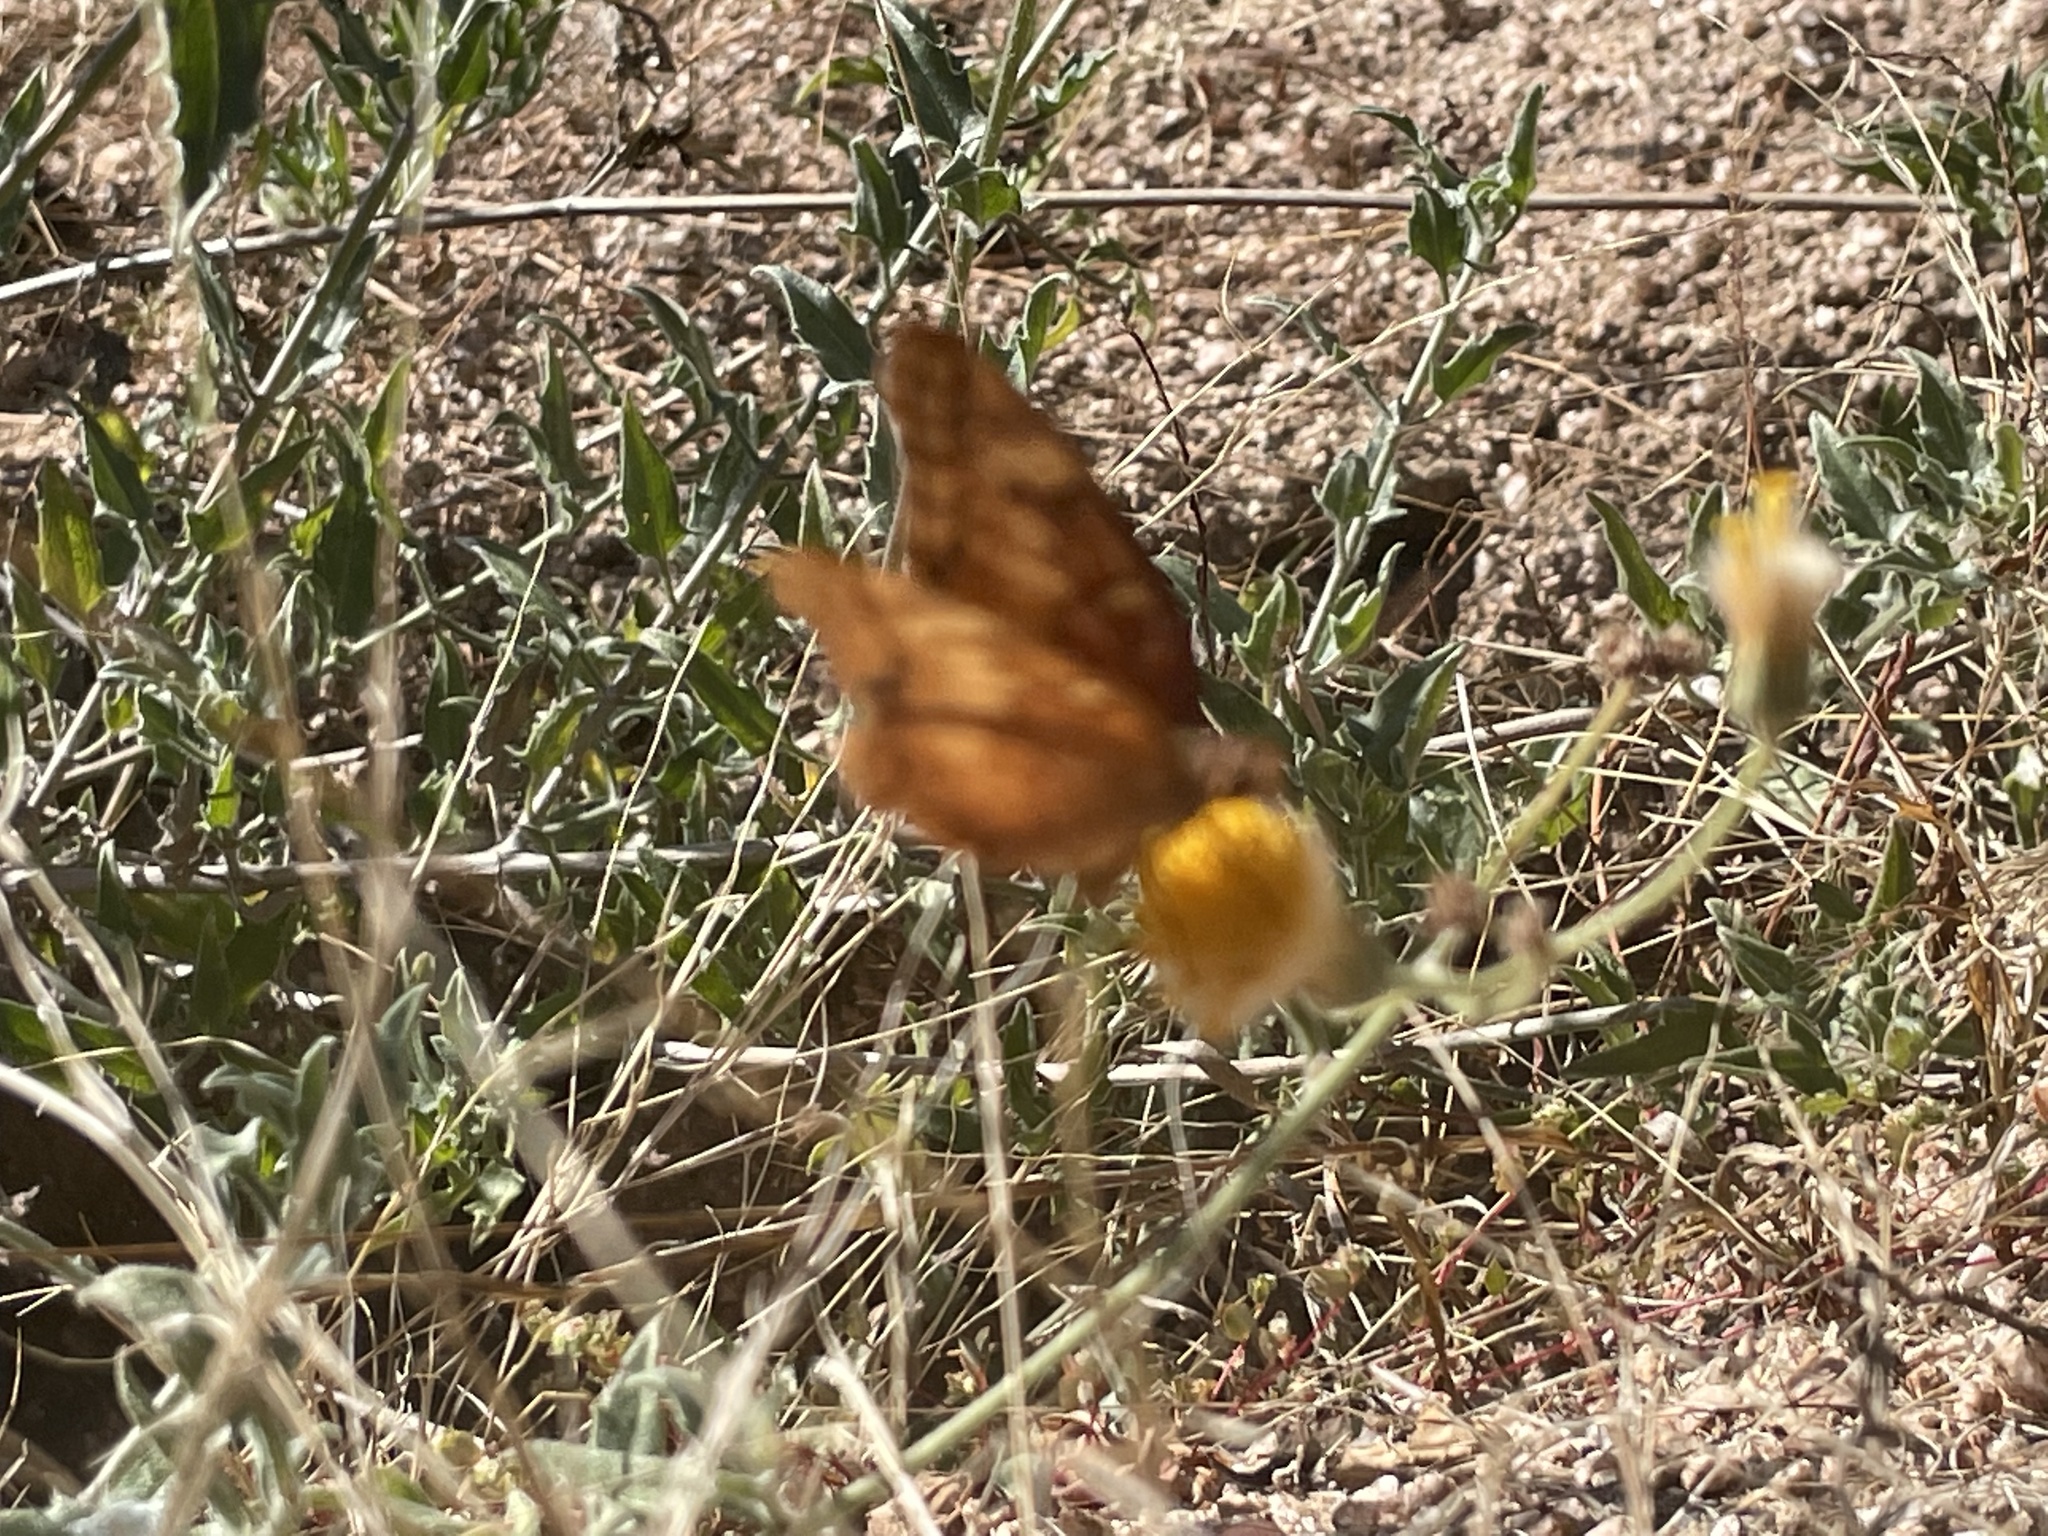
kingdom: Animalia
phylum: Arthropoda
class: Insecta
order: Lepidoptera
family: Nymphalidae
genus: Euptoieta
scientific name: Euptoieta hegesia
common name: Mexican fritillary
